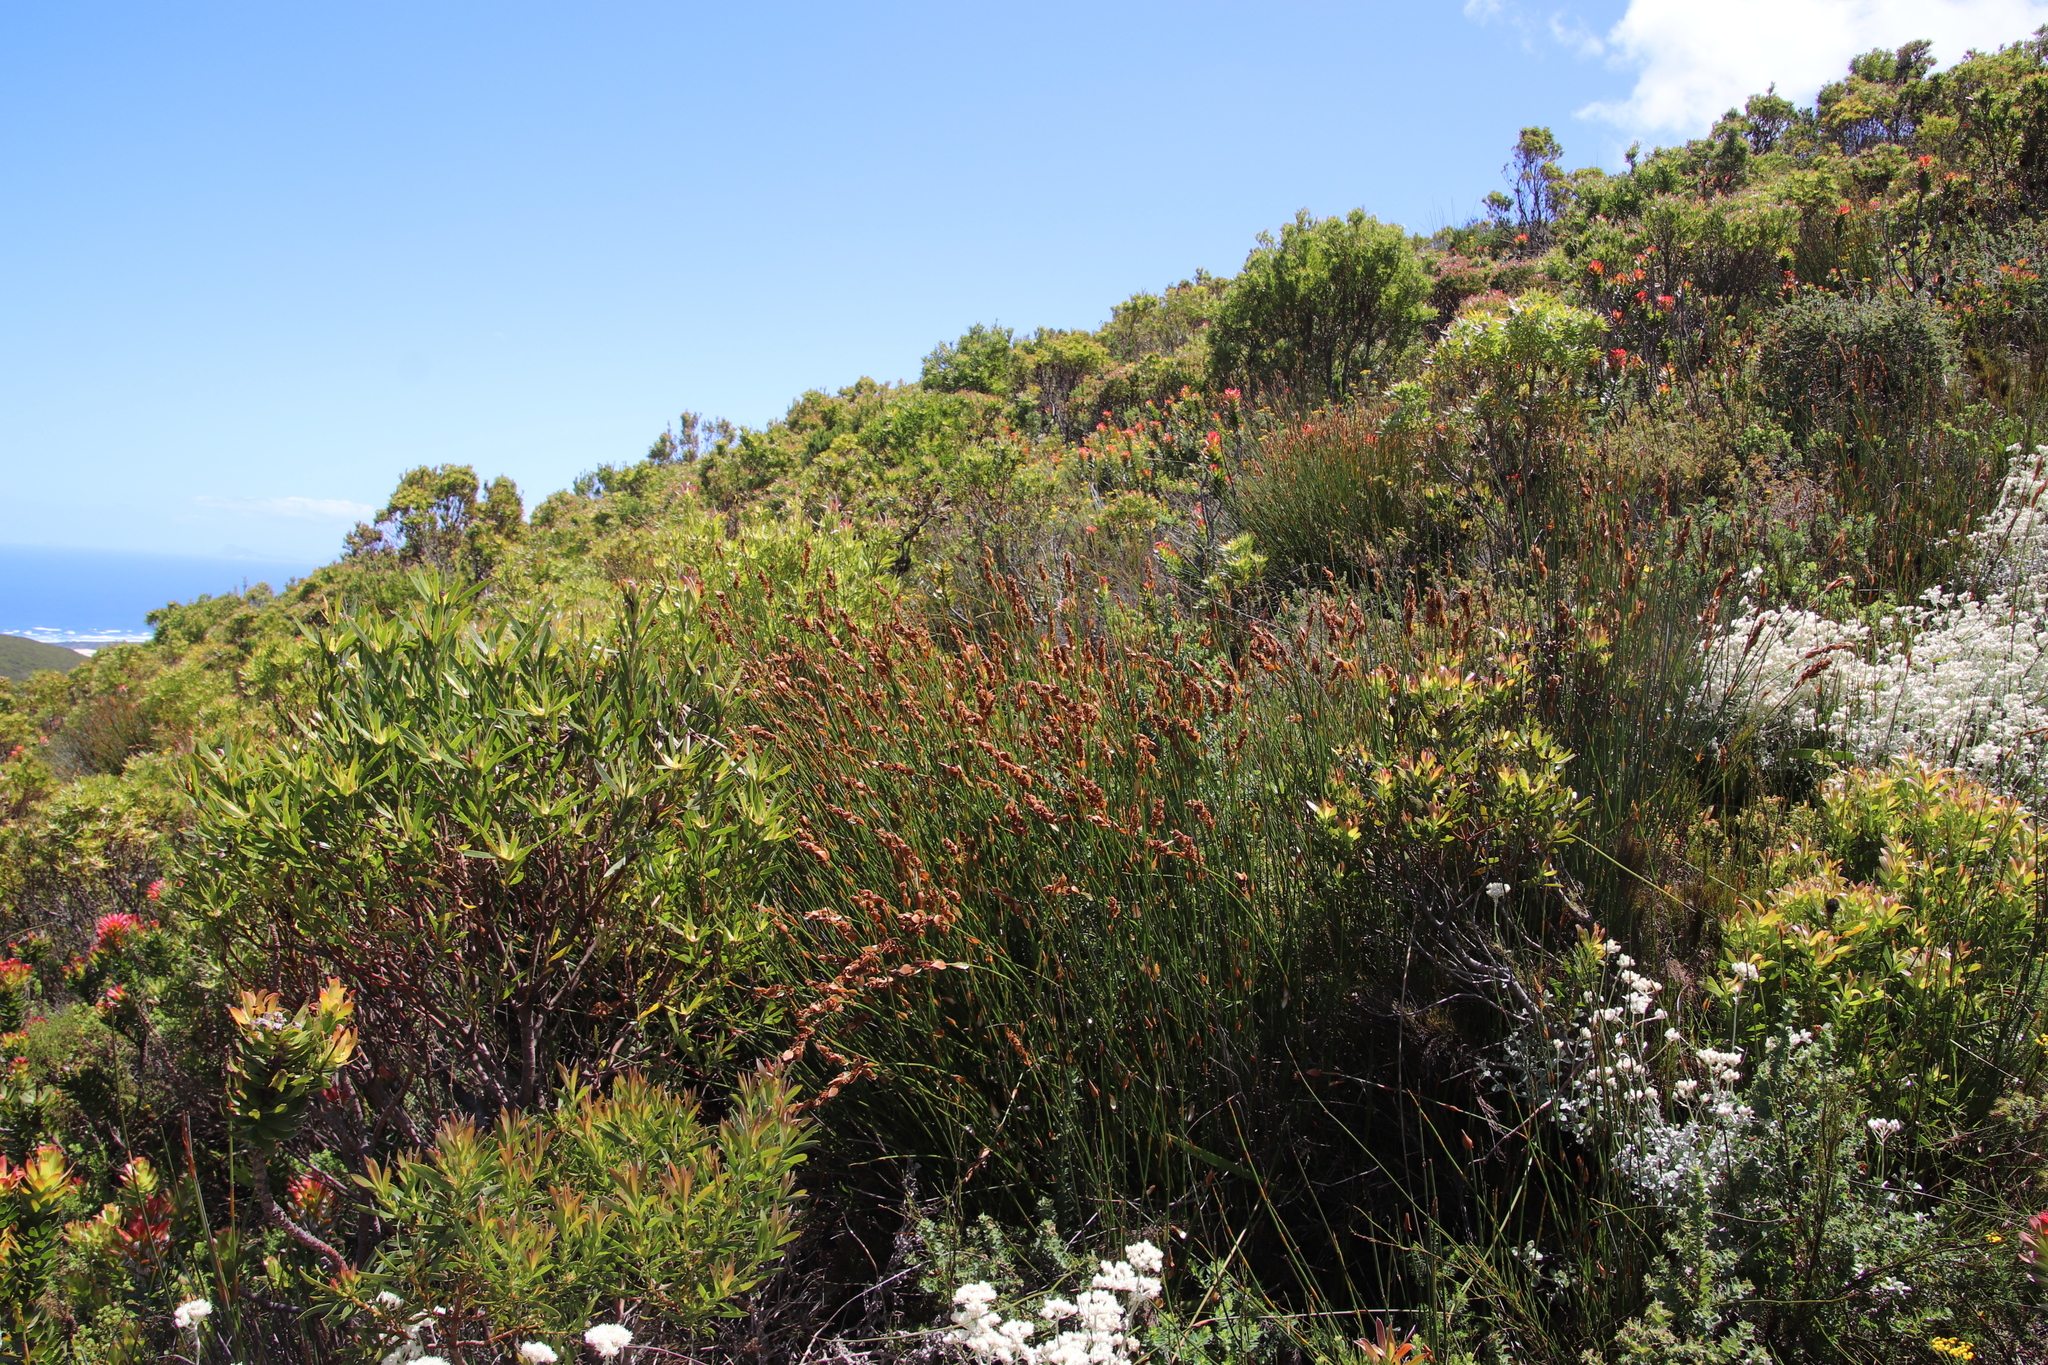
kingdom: Plantae
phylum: Tracheophyta
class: Liliopsida
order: Poales
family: Restionaceae
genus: Elegia
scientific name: Elegia equisetacea
